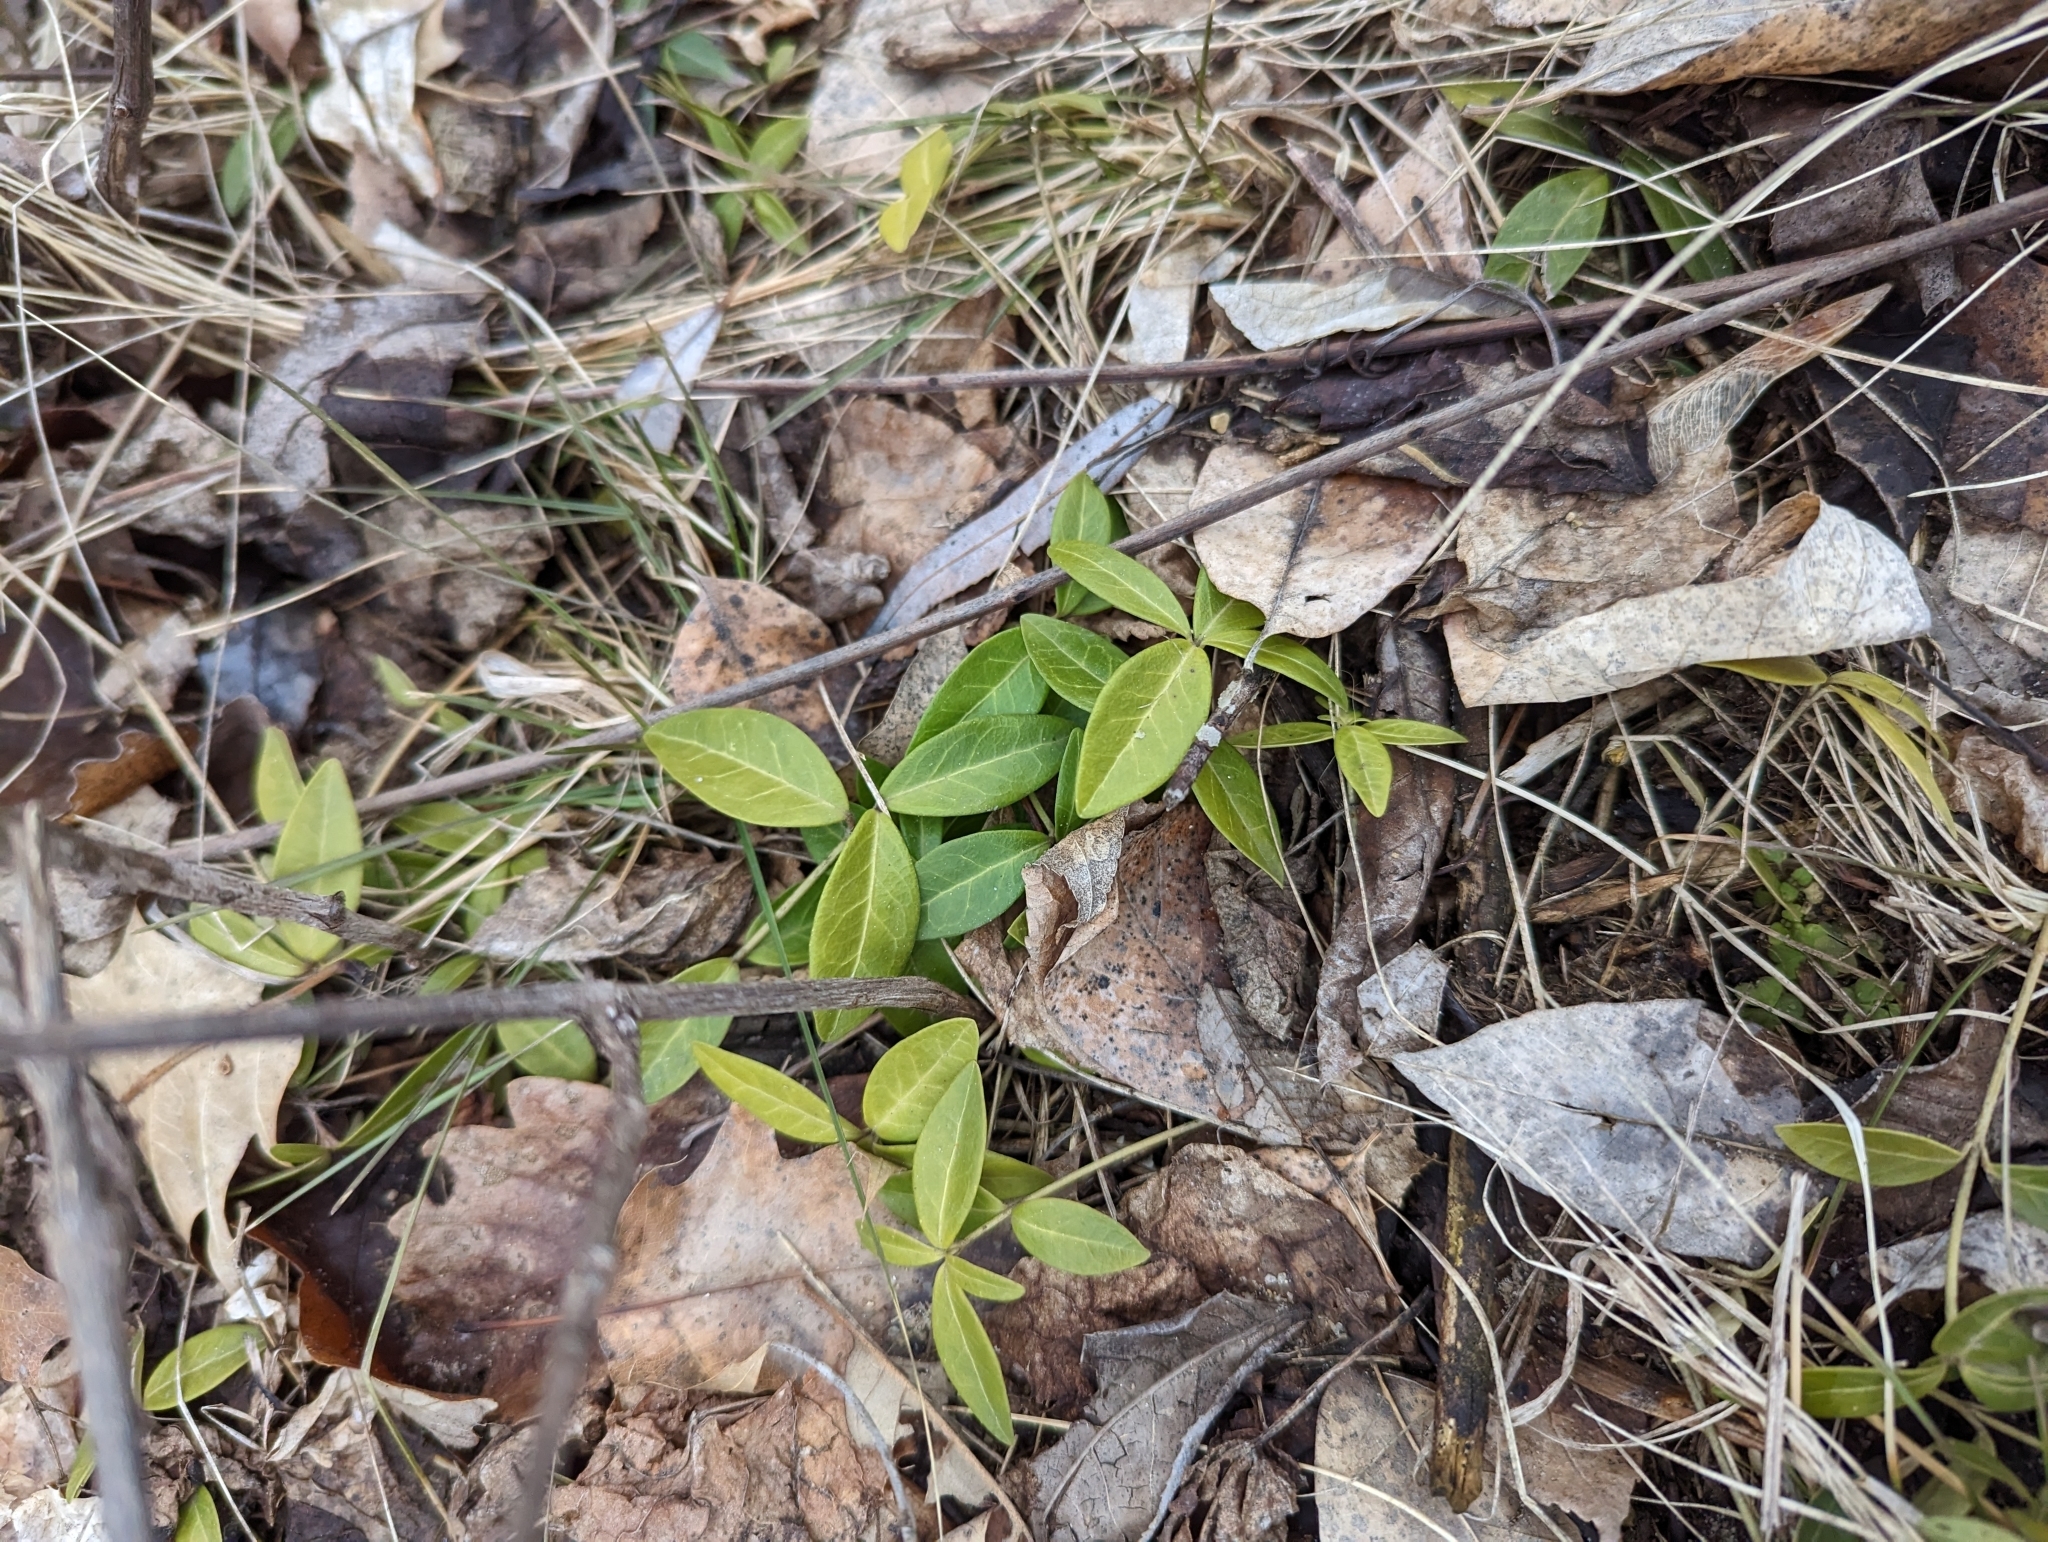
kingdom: Plantae
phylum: Tracheophyta
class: Magnoliopsida
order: Gentianales
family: Apocynaceae
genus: Vinca
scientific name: Vinca minor
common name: Lesser periwinkle
